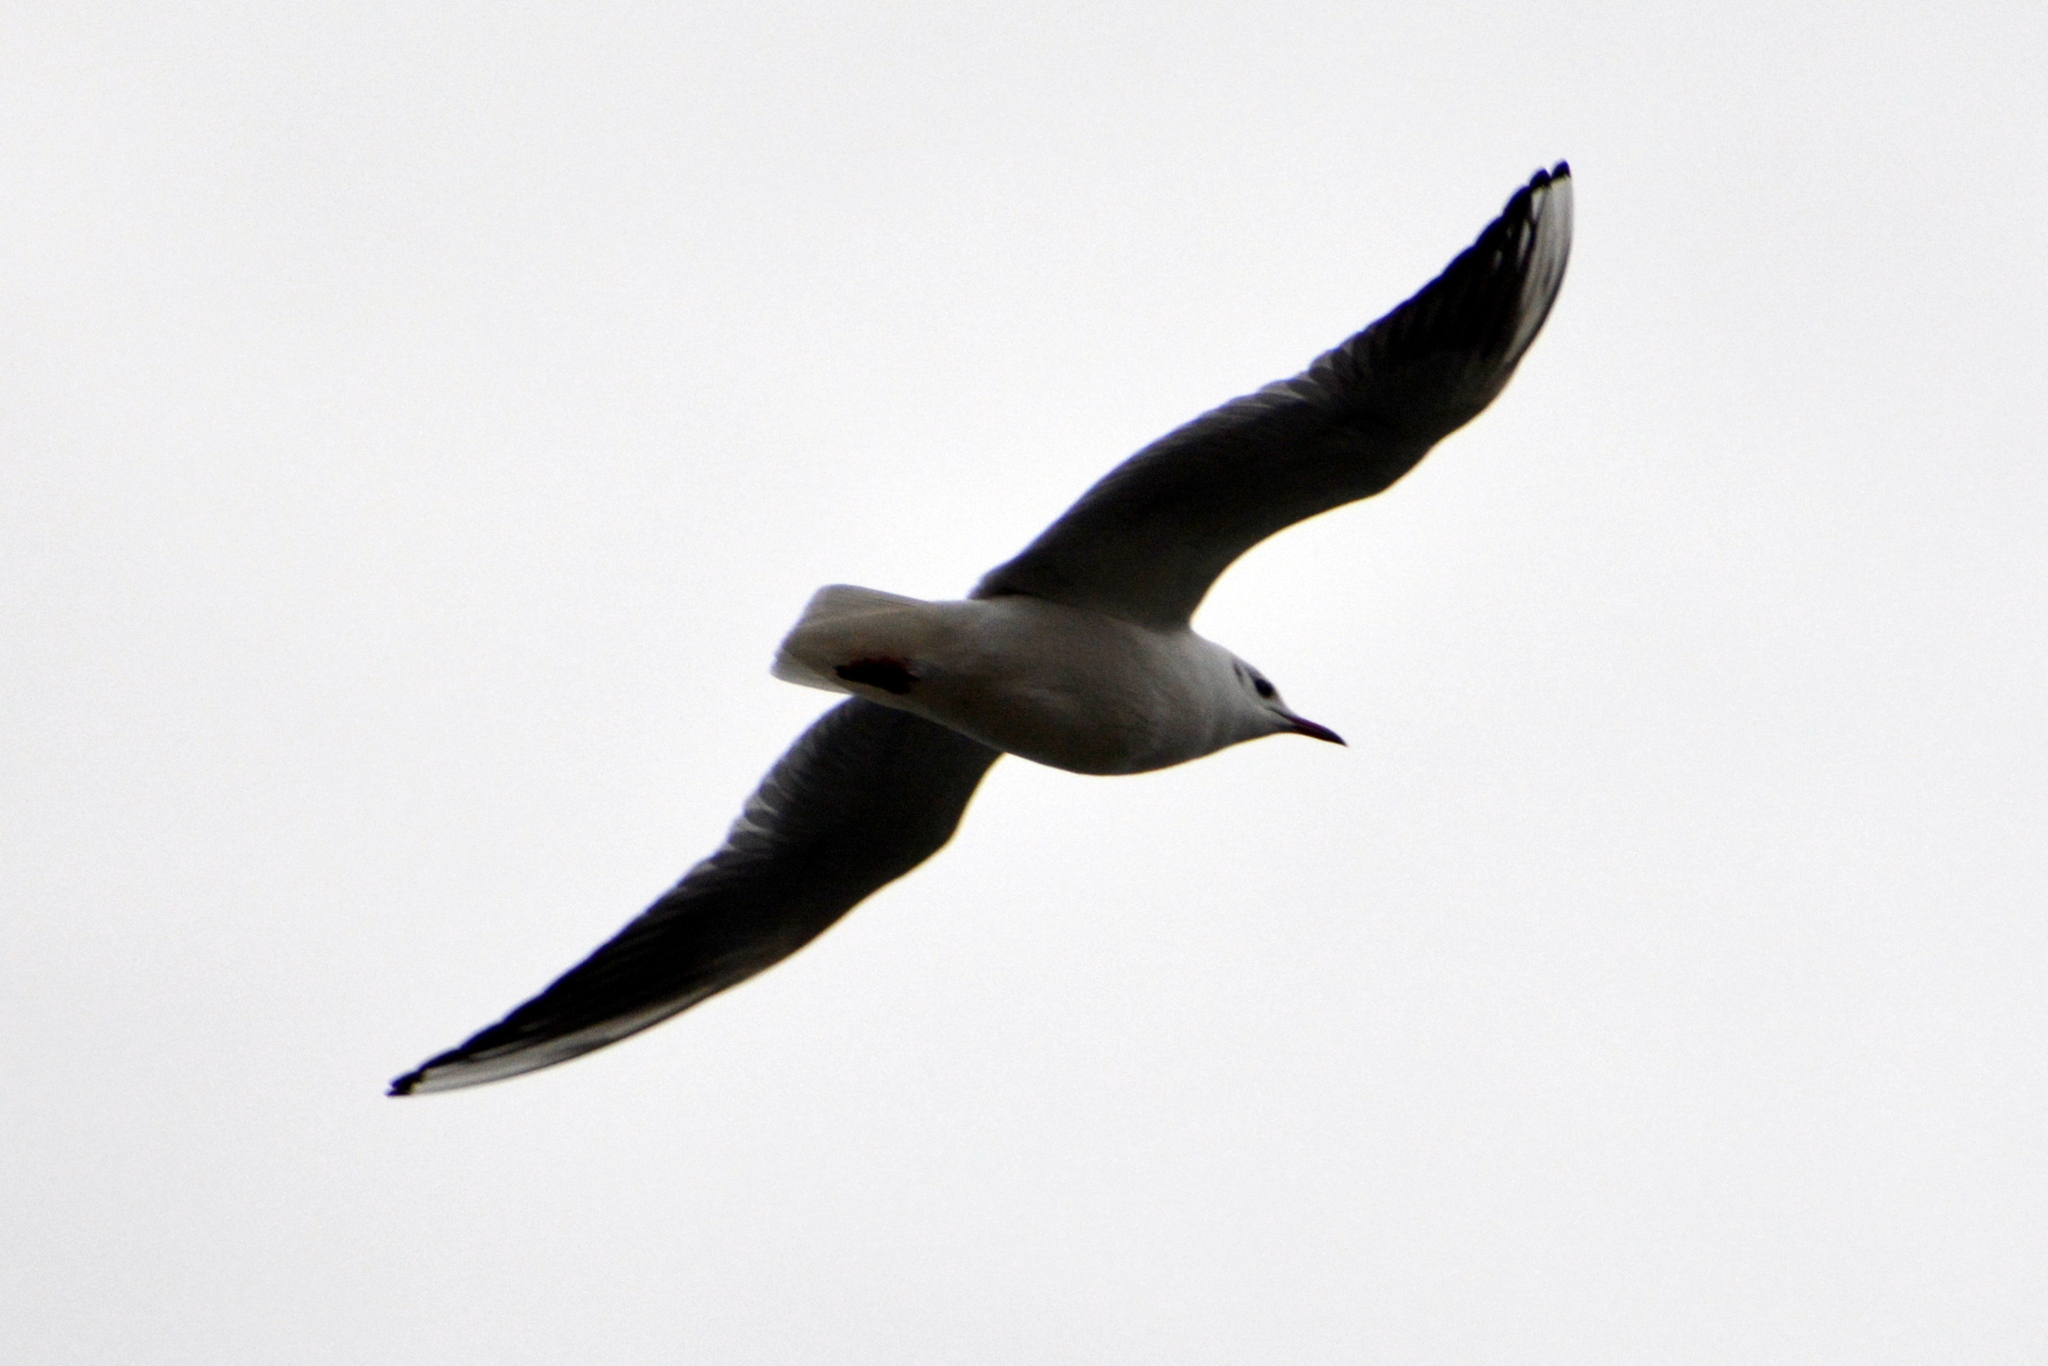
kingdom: Animalia
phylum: Chordata
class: Aves
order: Charadriiformes
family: Laridae
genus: Chroicocephalus
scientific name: Chroicocephalus ridibundus
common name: Black-headed gull
